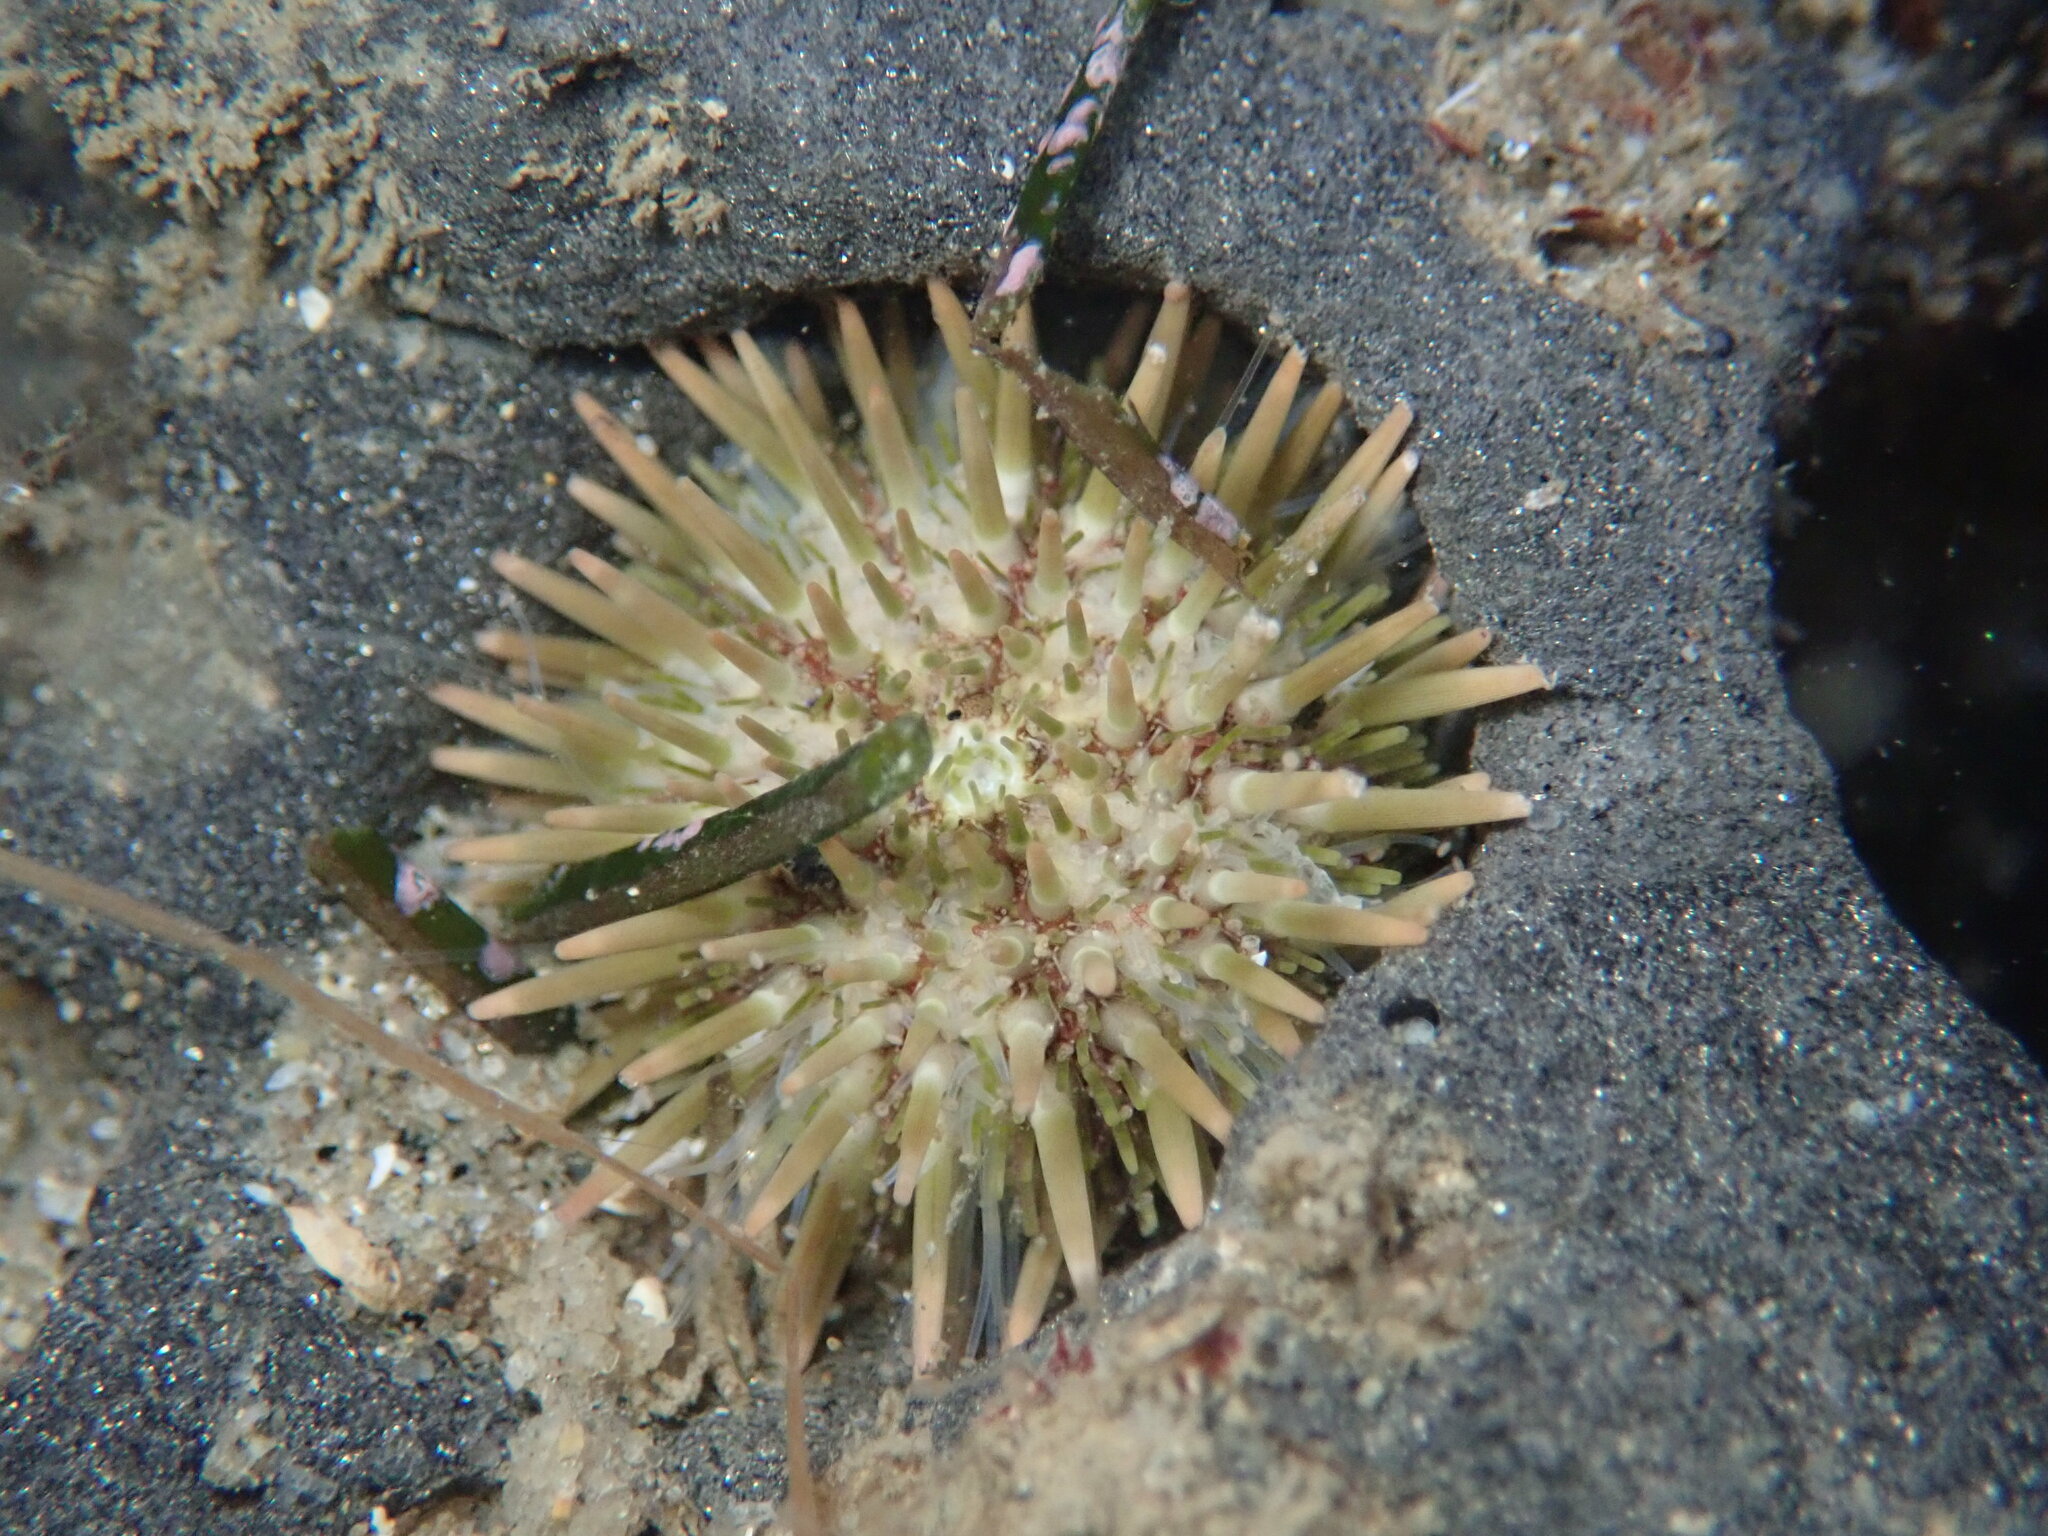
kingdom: Animalia
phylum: Echinodermata
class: Echinoidea
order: Camarodonta
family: Strongylocentrotidae
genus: Strongylocentrotus
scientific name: Strongylocentrotus purpuratus
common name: Purple sea urchin
